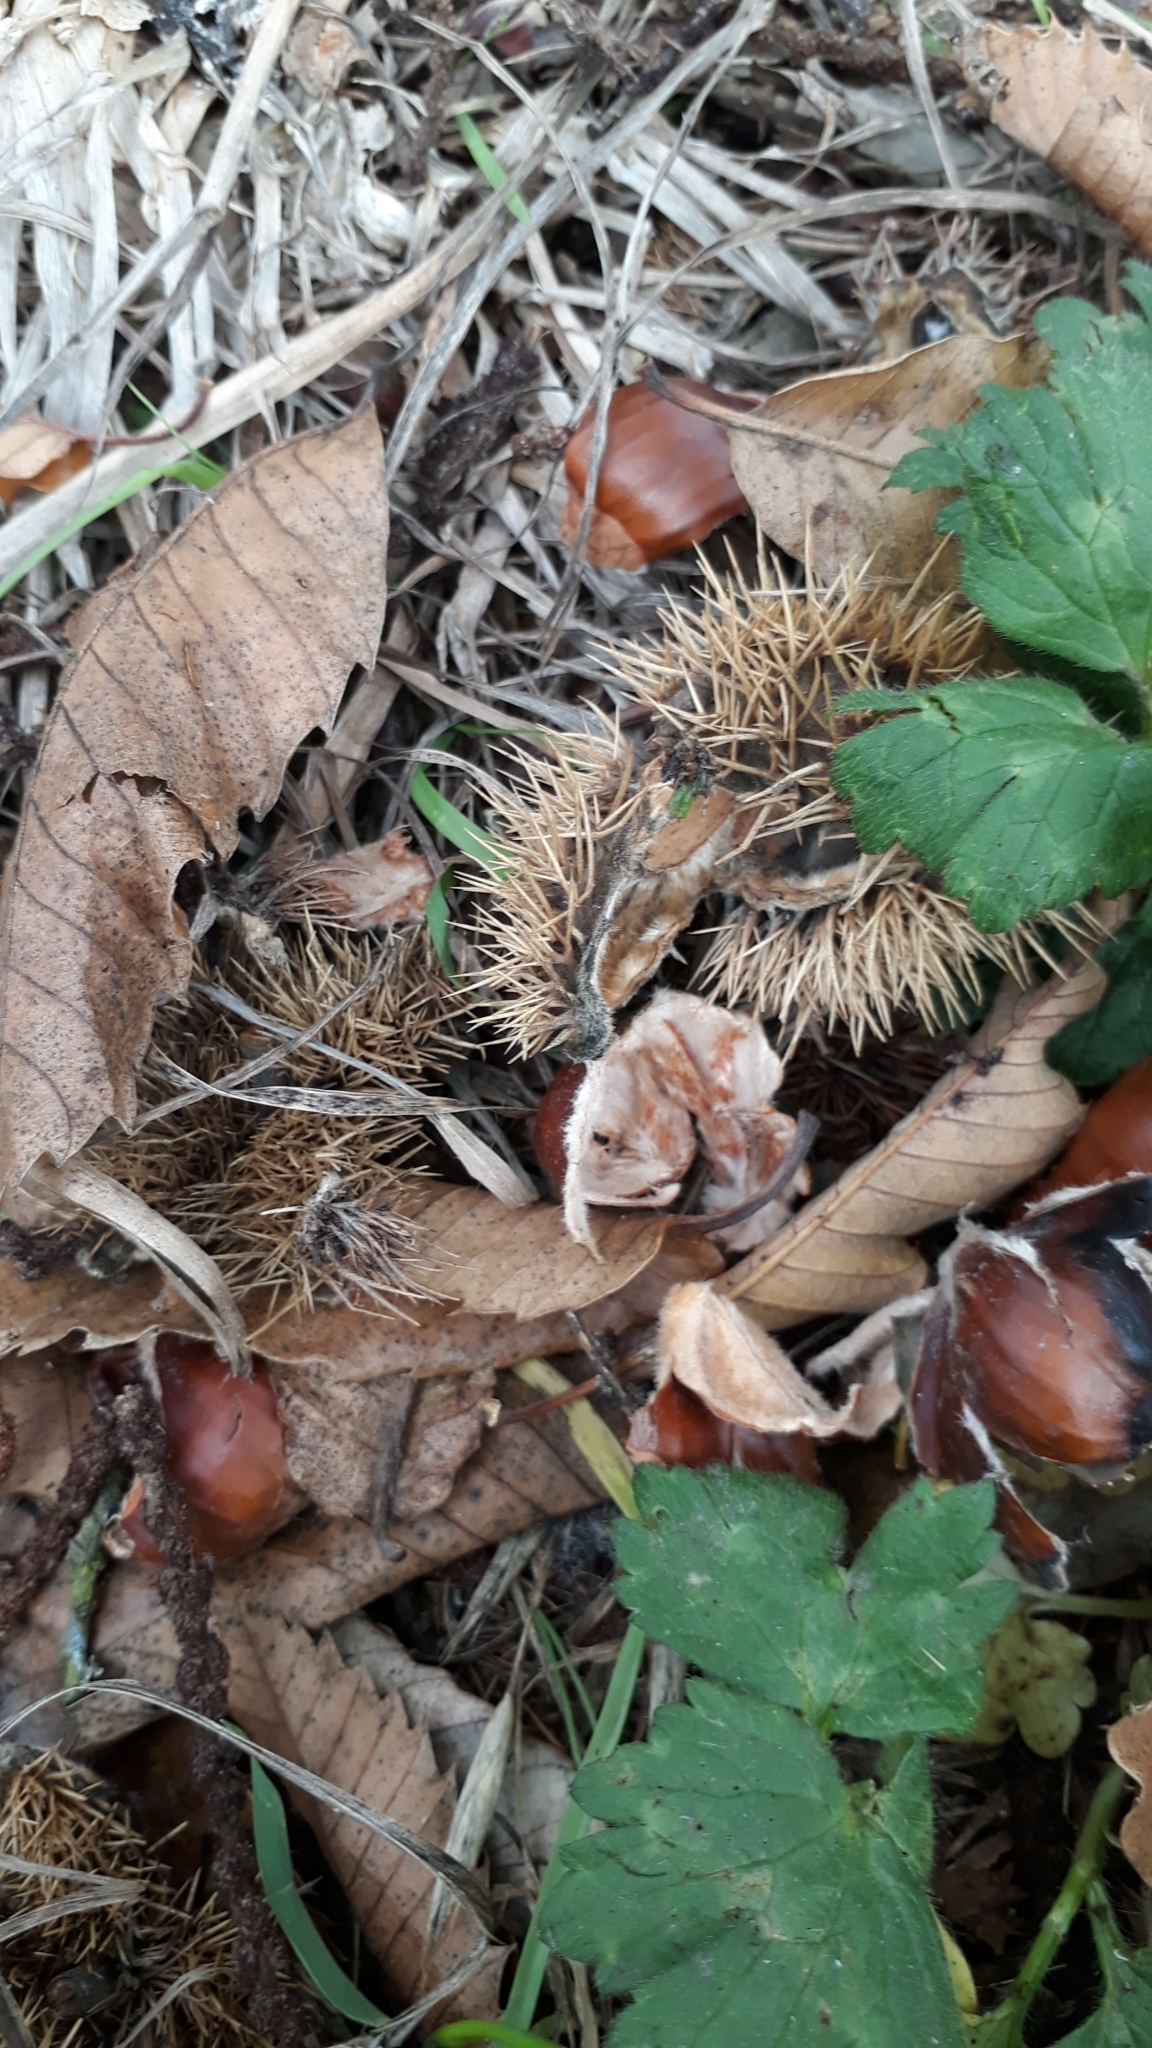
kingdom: Plantae
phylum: Tracheophyta
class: Magnoliopsida
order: Fagales
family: Fagaceae
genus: Castanea
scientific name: Castanea sativa
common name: Sweet chestnut
